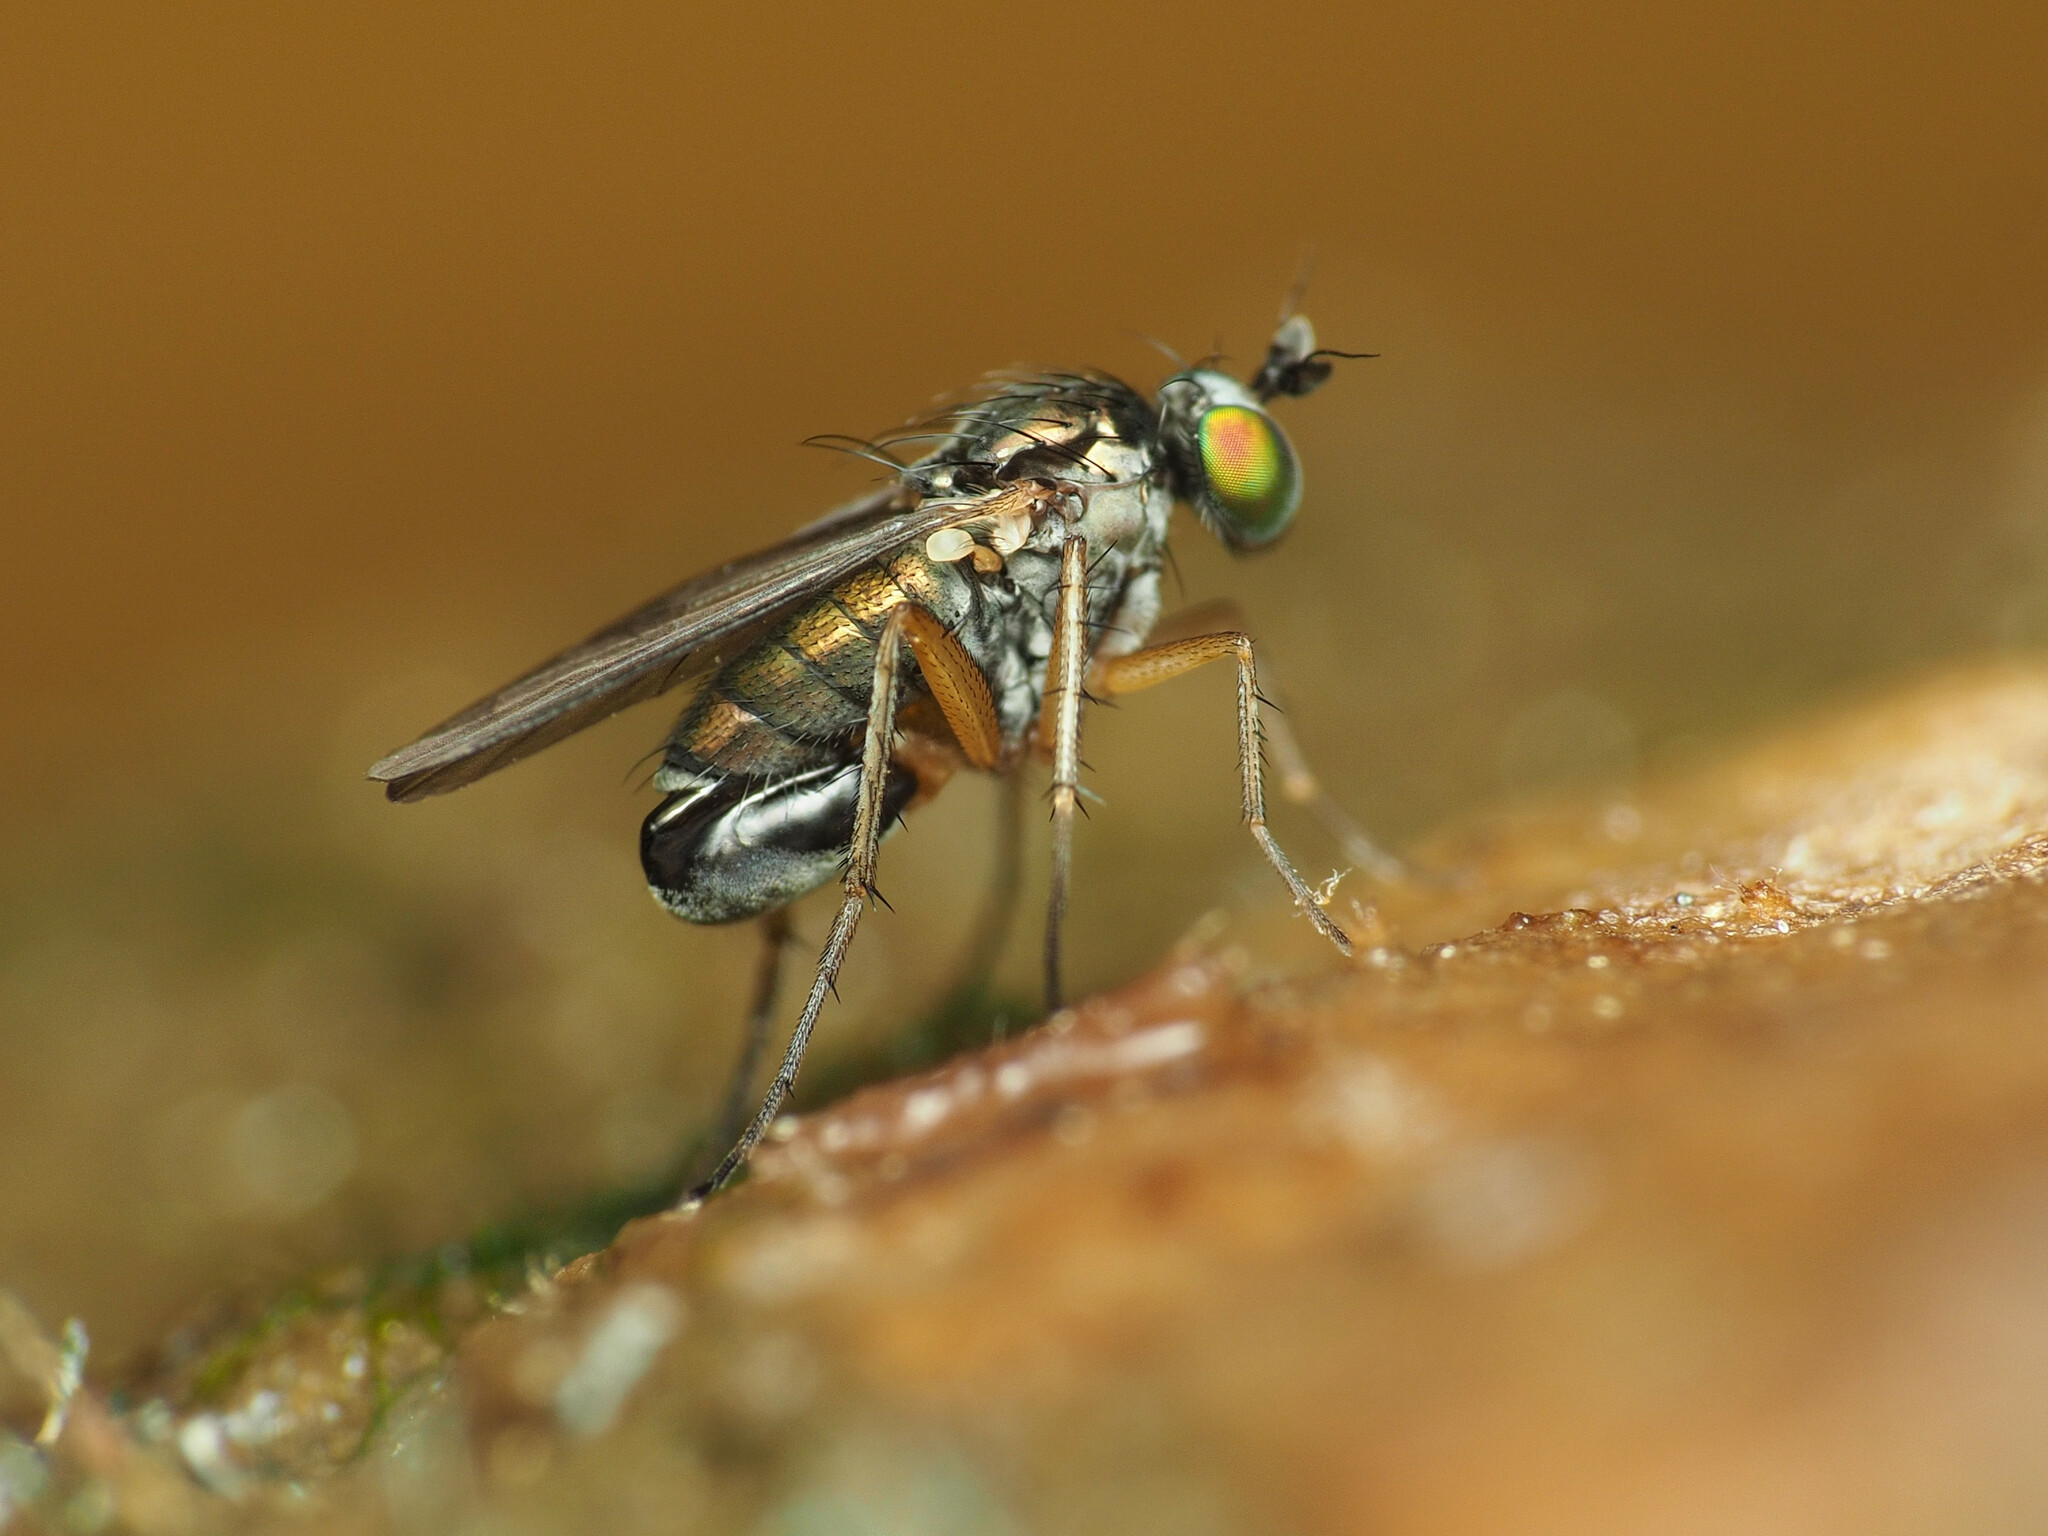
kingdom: Animalia
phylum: Arthropoda
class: Insecta
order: Diptera
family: Dolichopodidae
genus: Gymnopternus
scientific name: Gymnopternus meniscus
